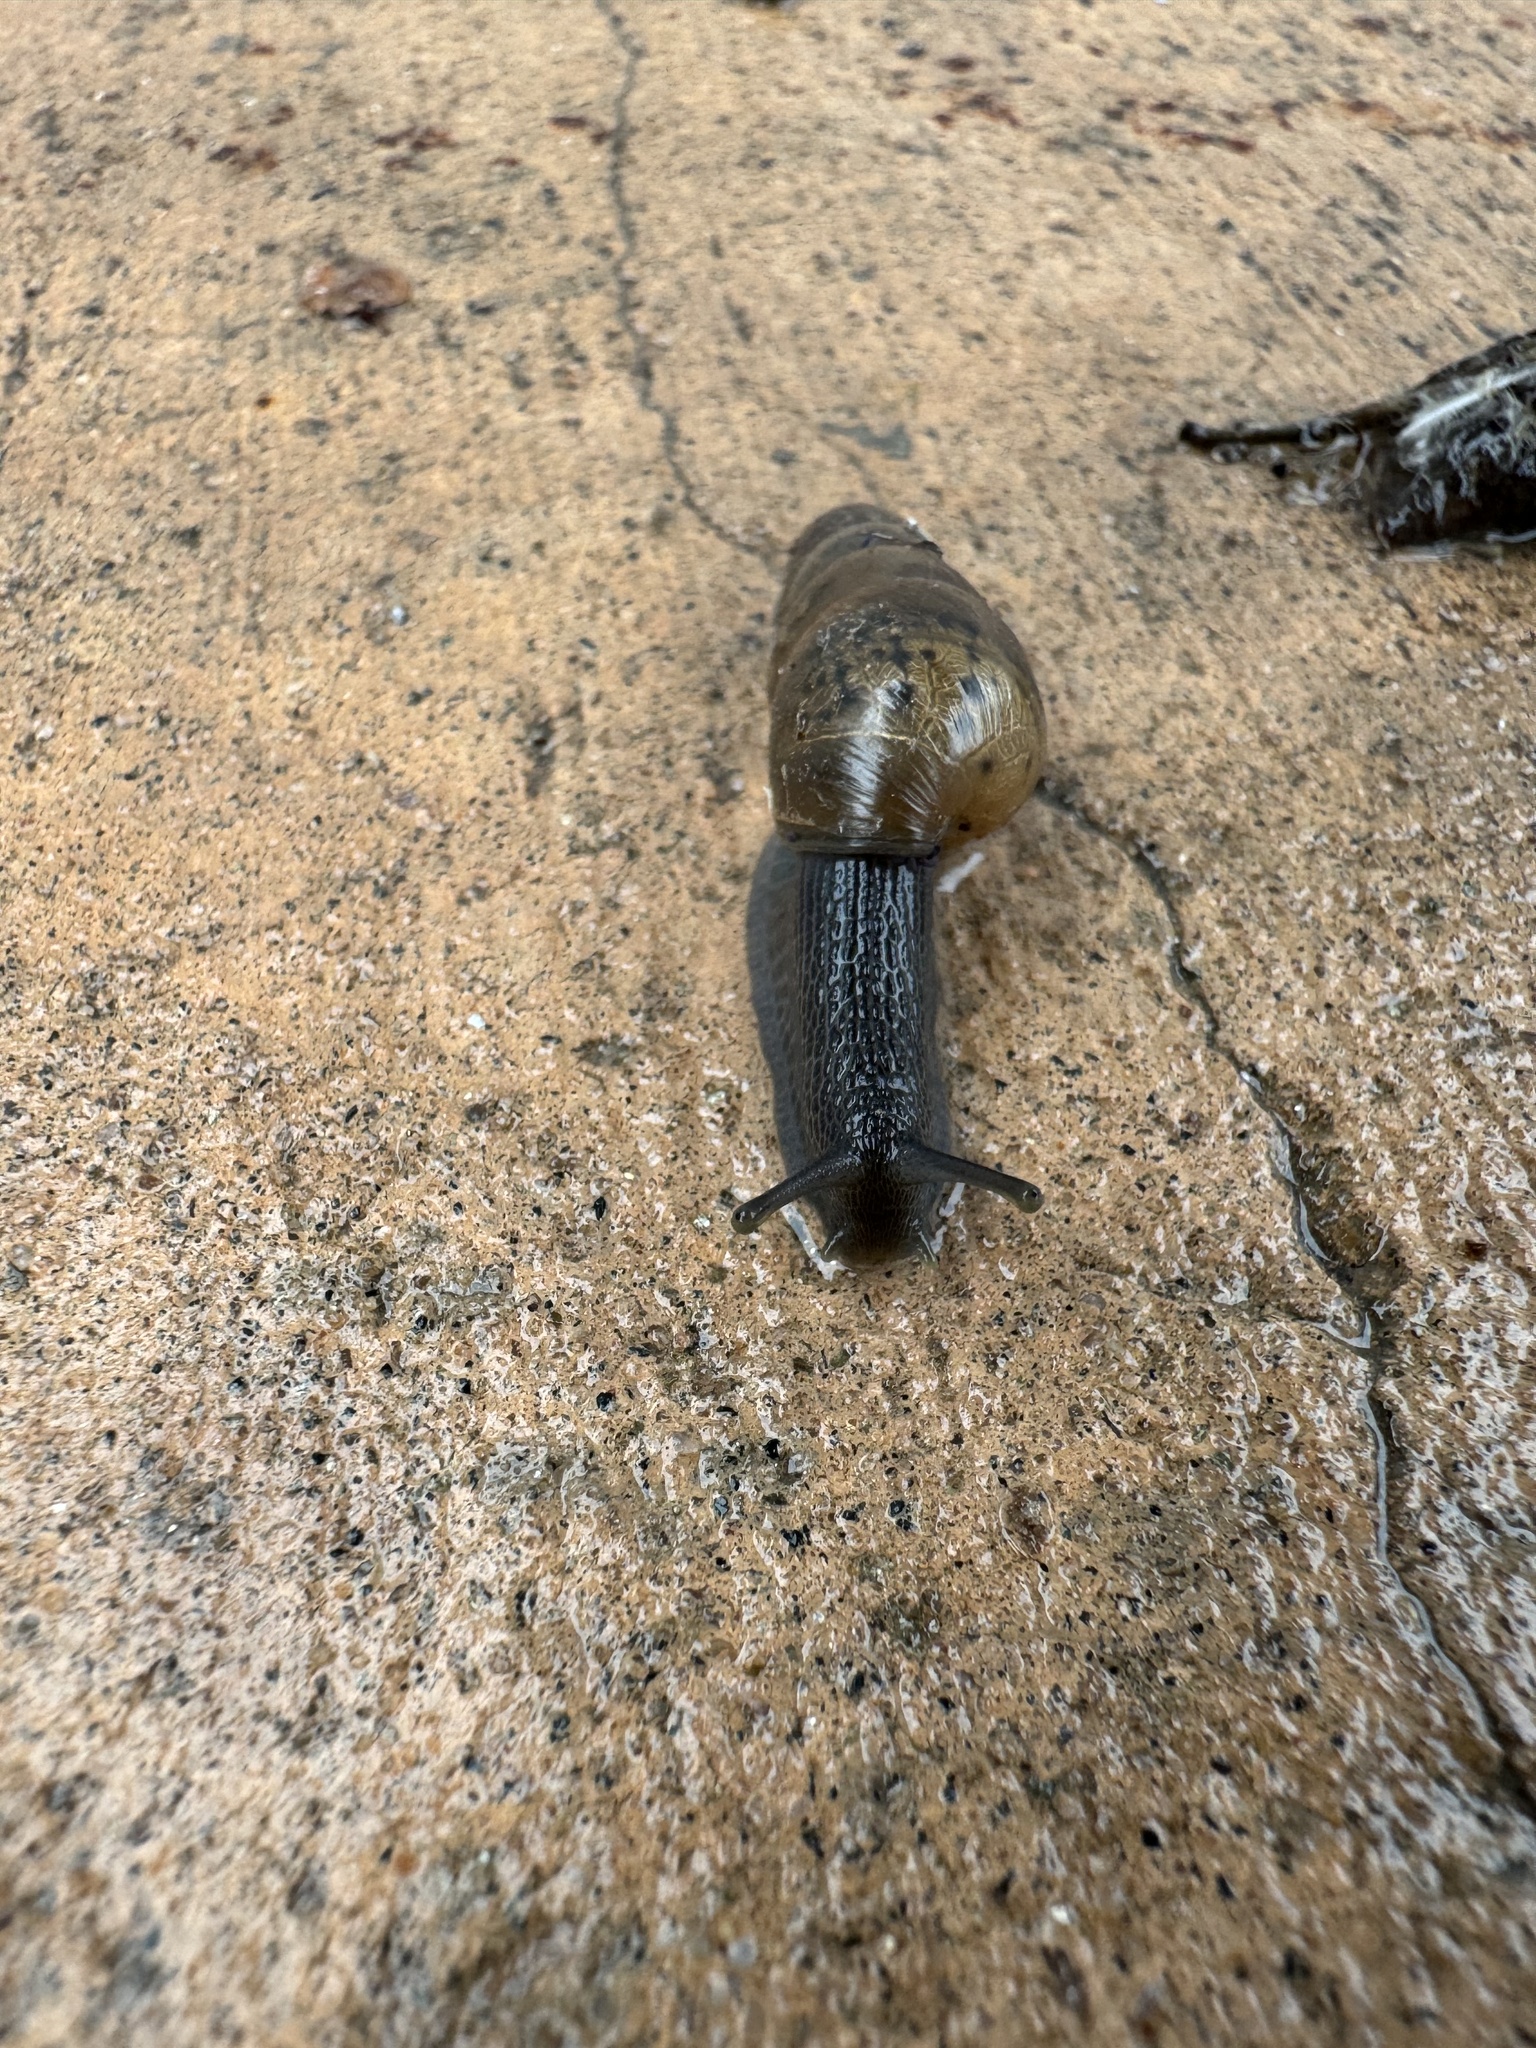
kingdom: Animalia
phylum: Mollusca
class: Gastropoda
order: Stylommatophora
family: Achatinidae
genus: Rumina
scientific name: Rumina decollata
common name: Decollate snail
